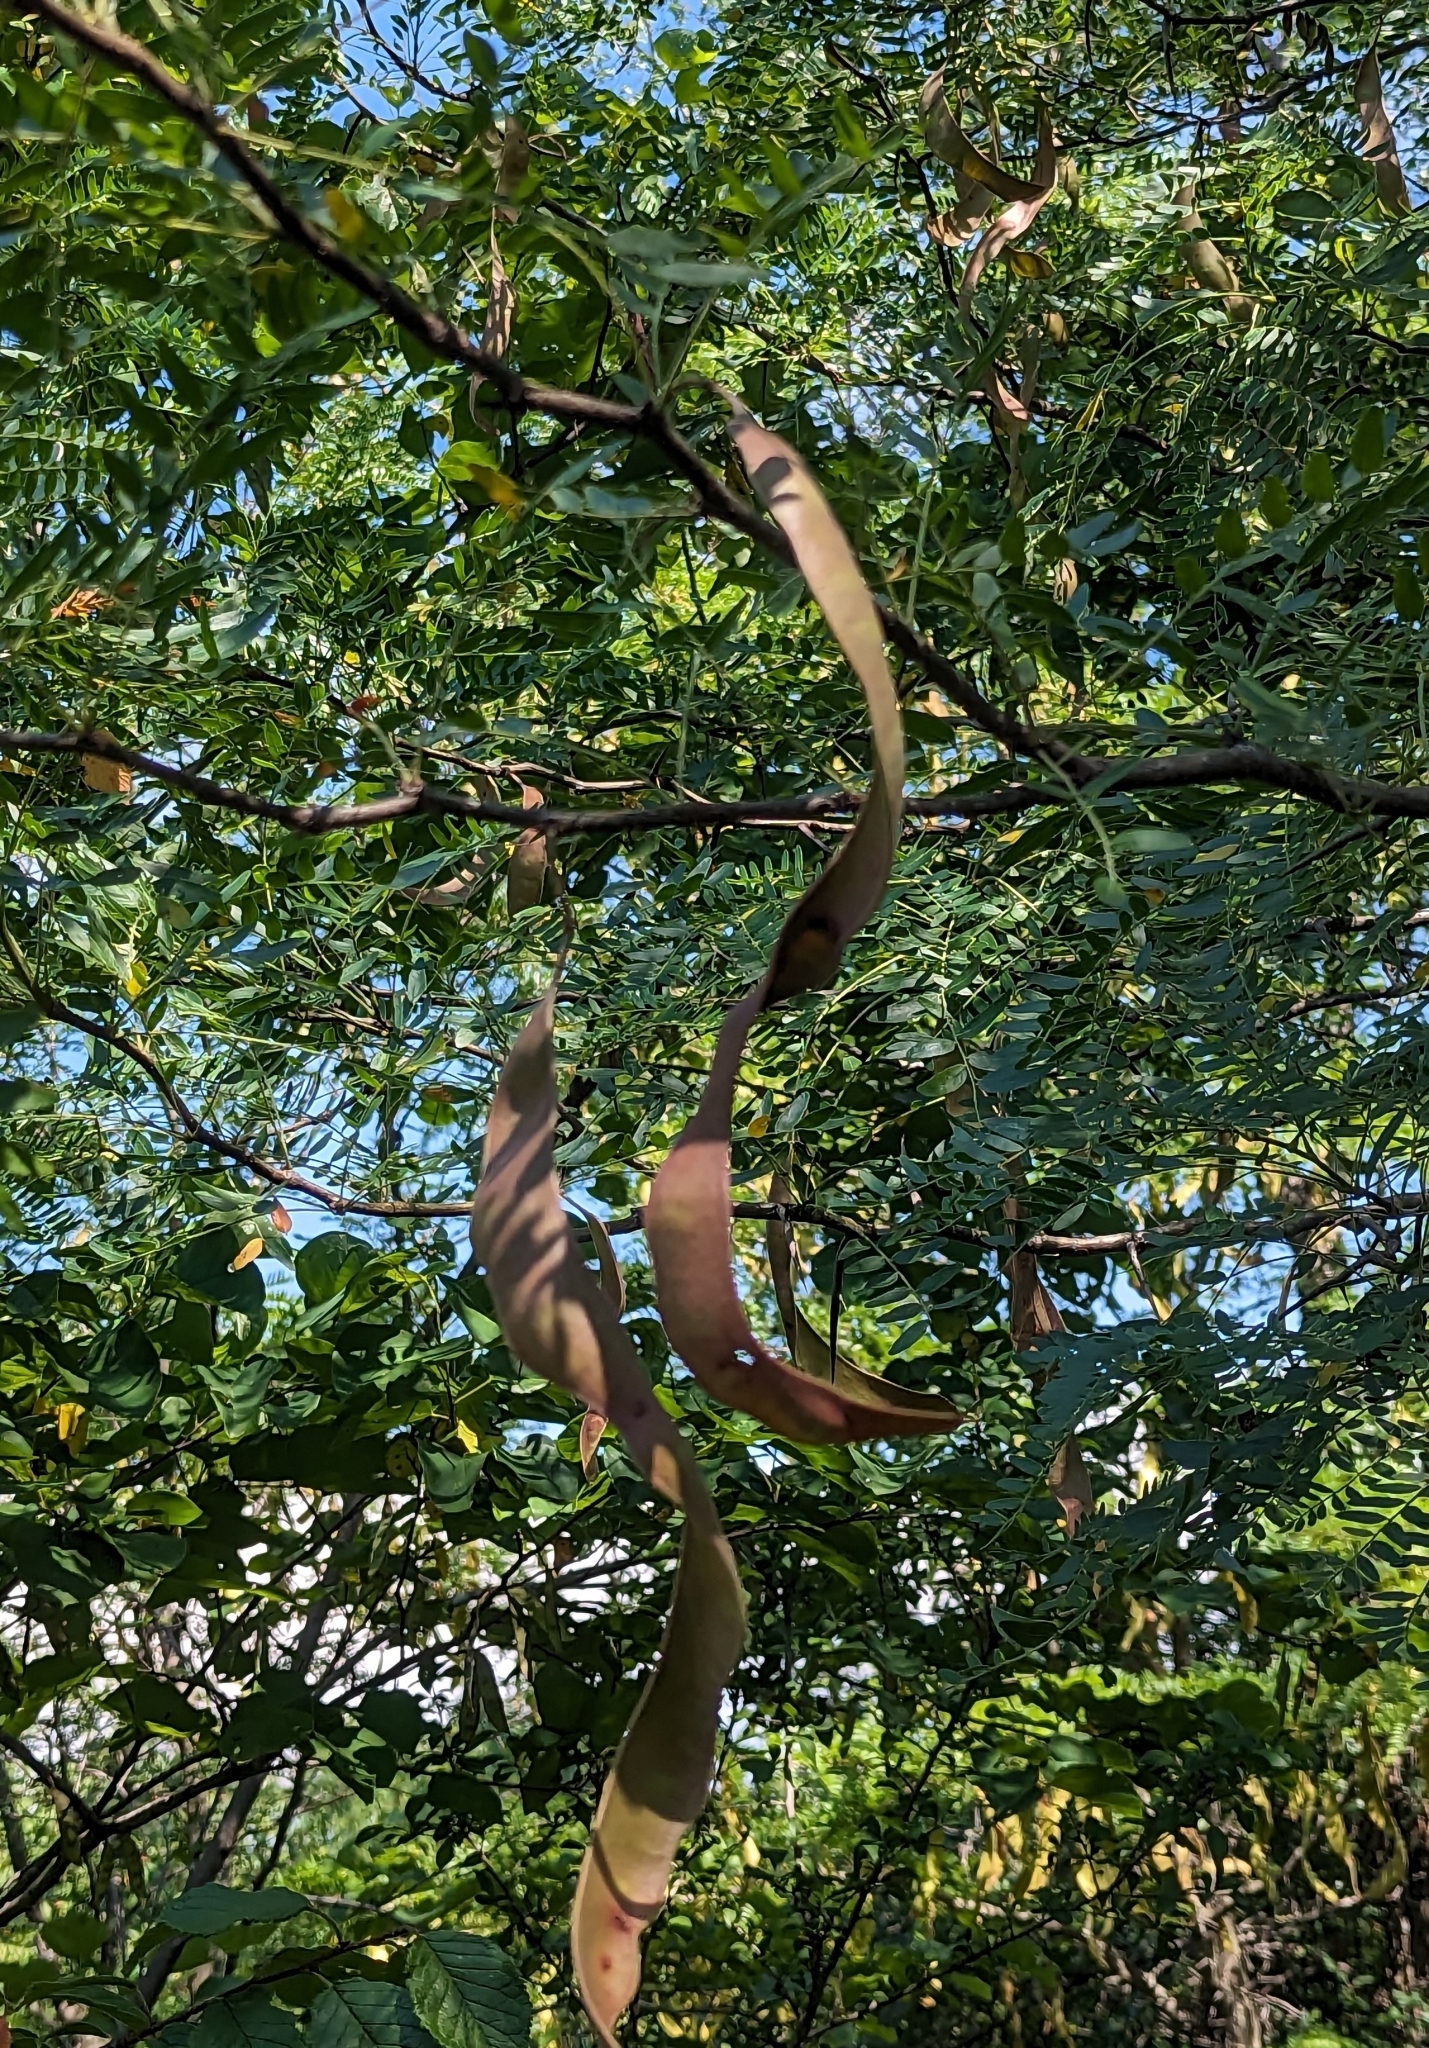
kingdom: Plantae
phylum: Tracheophyta
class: Magnoliopsida
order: Fabales
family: Fabaceae
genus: Gleditsia
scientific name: Gleditsia triacanthos
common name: Common honeylocust
